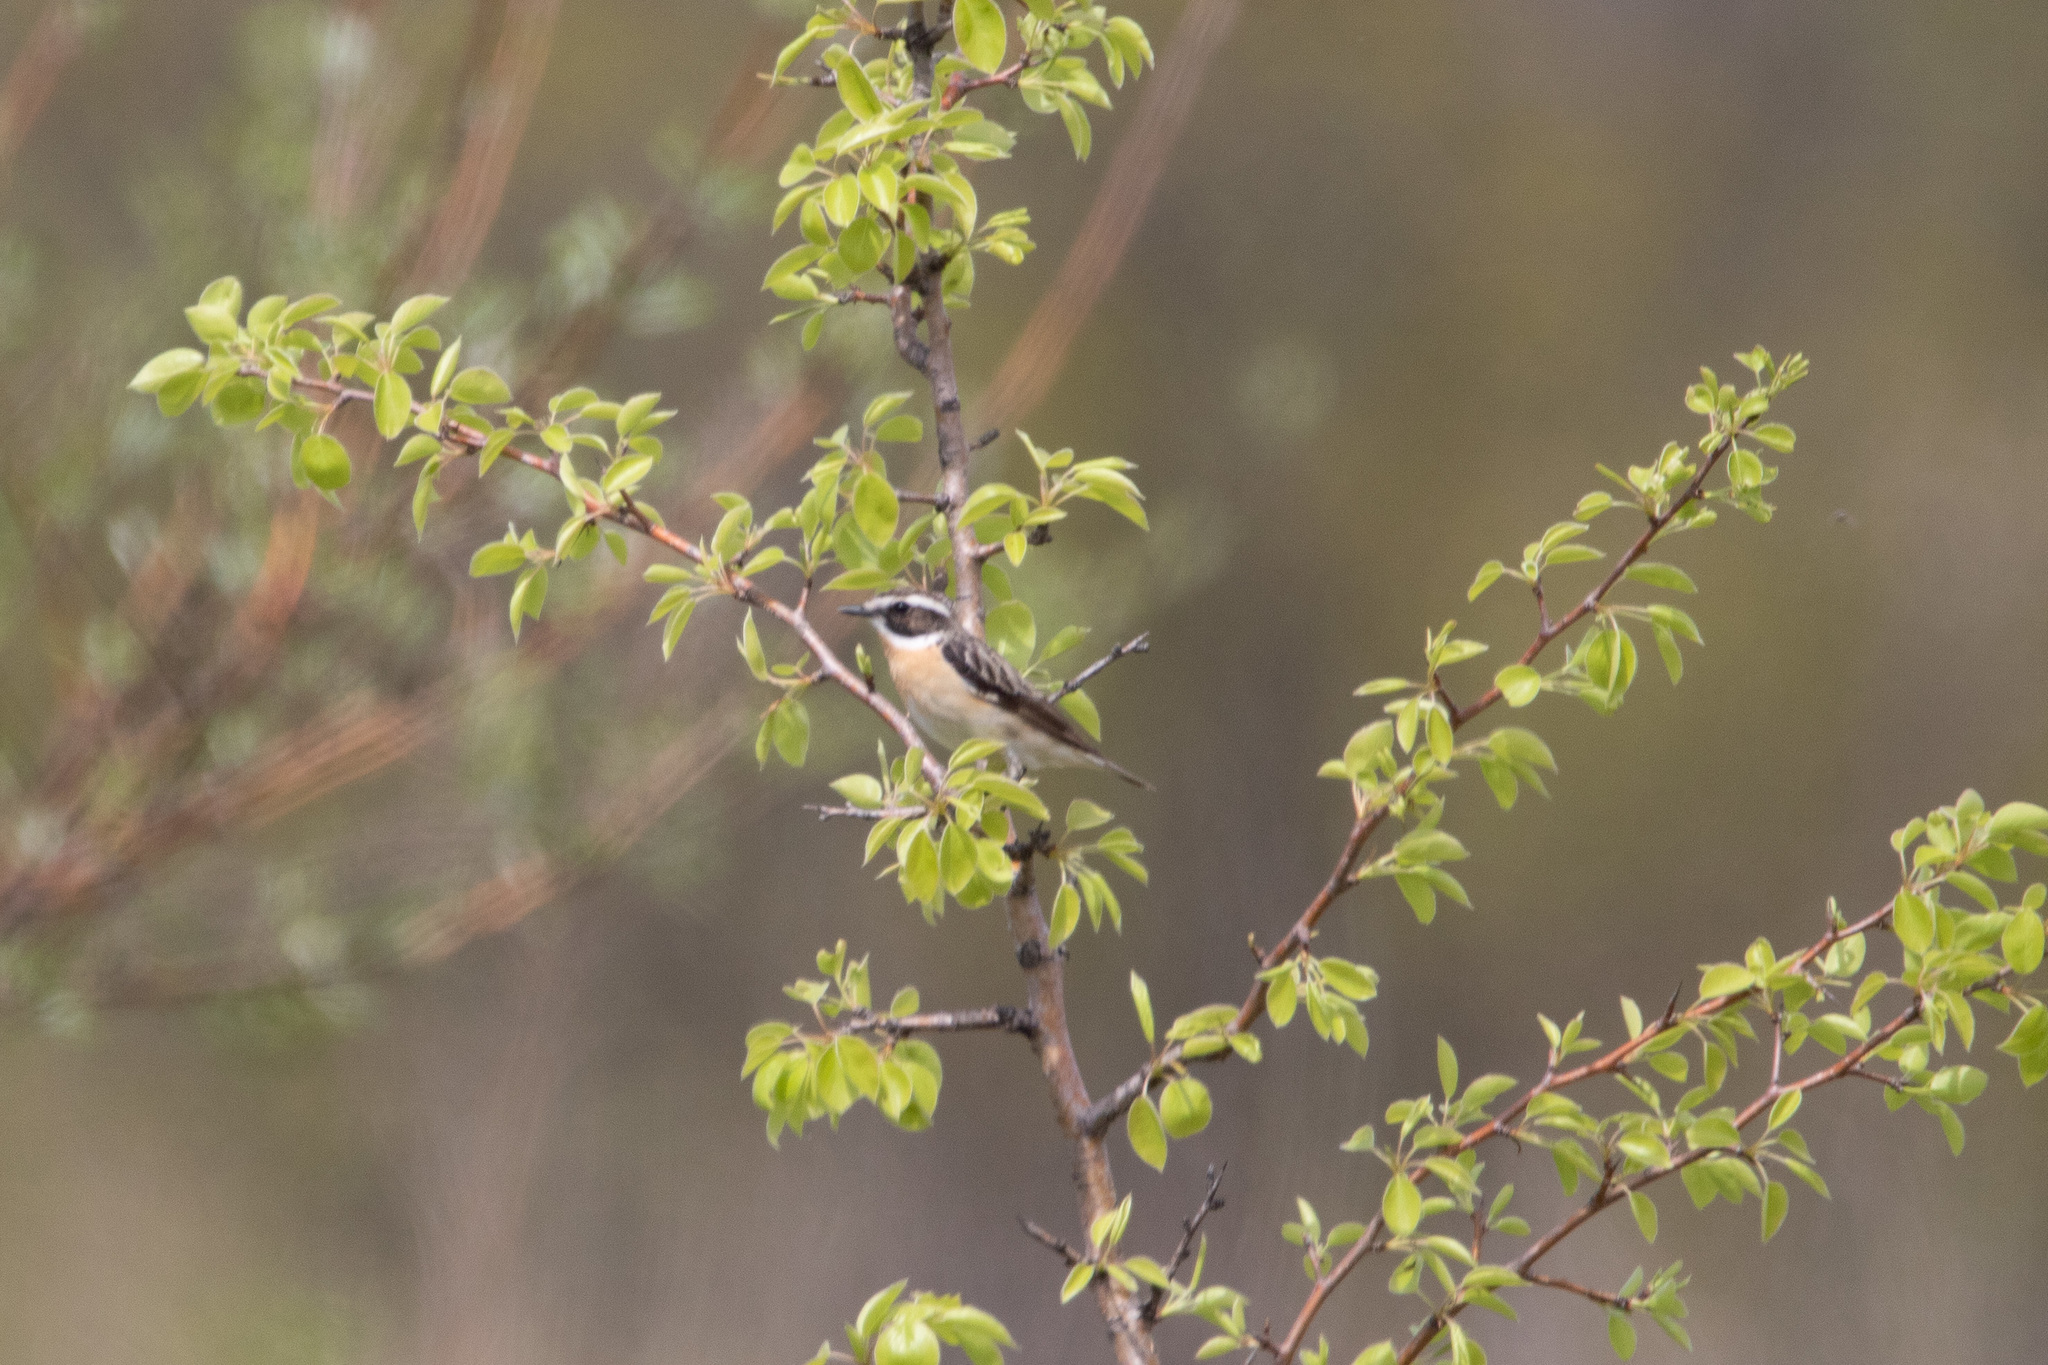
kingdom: Animalia
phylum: Chordata
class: Aves
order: Passeriformes
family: Muscicapidae
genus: Saxicola
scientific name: Saxicola rubetra
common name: Whinchat
